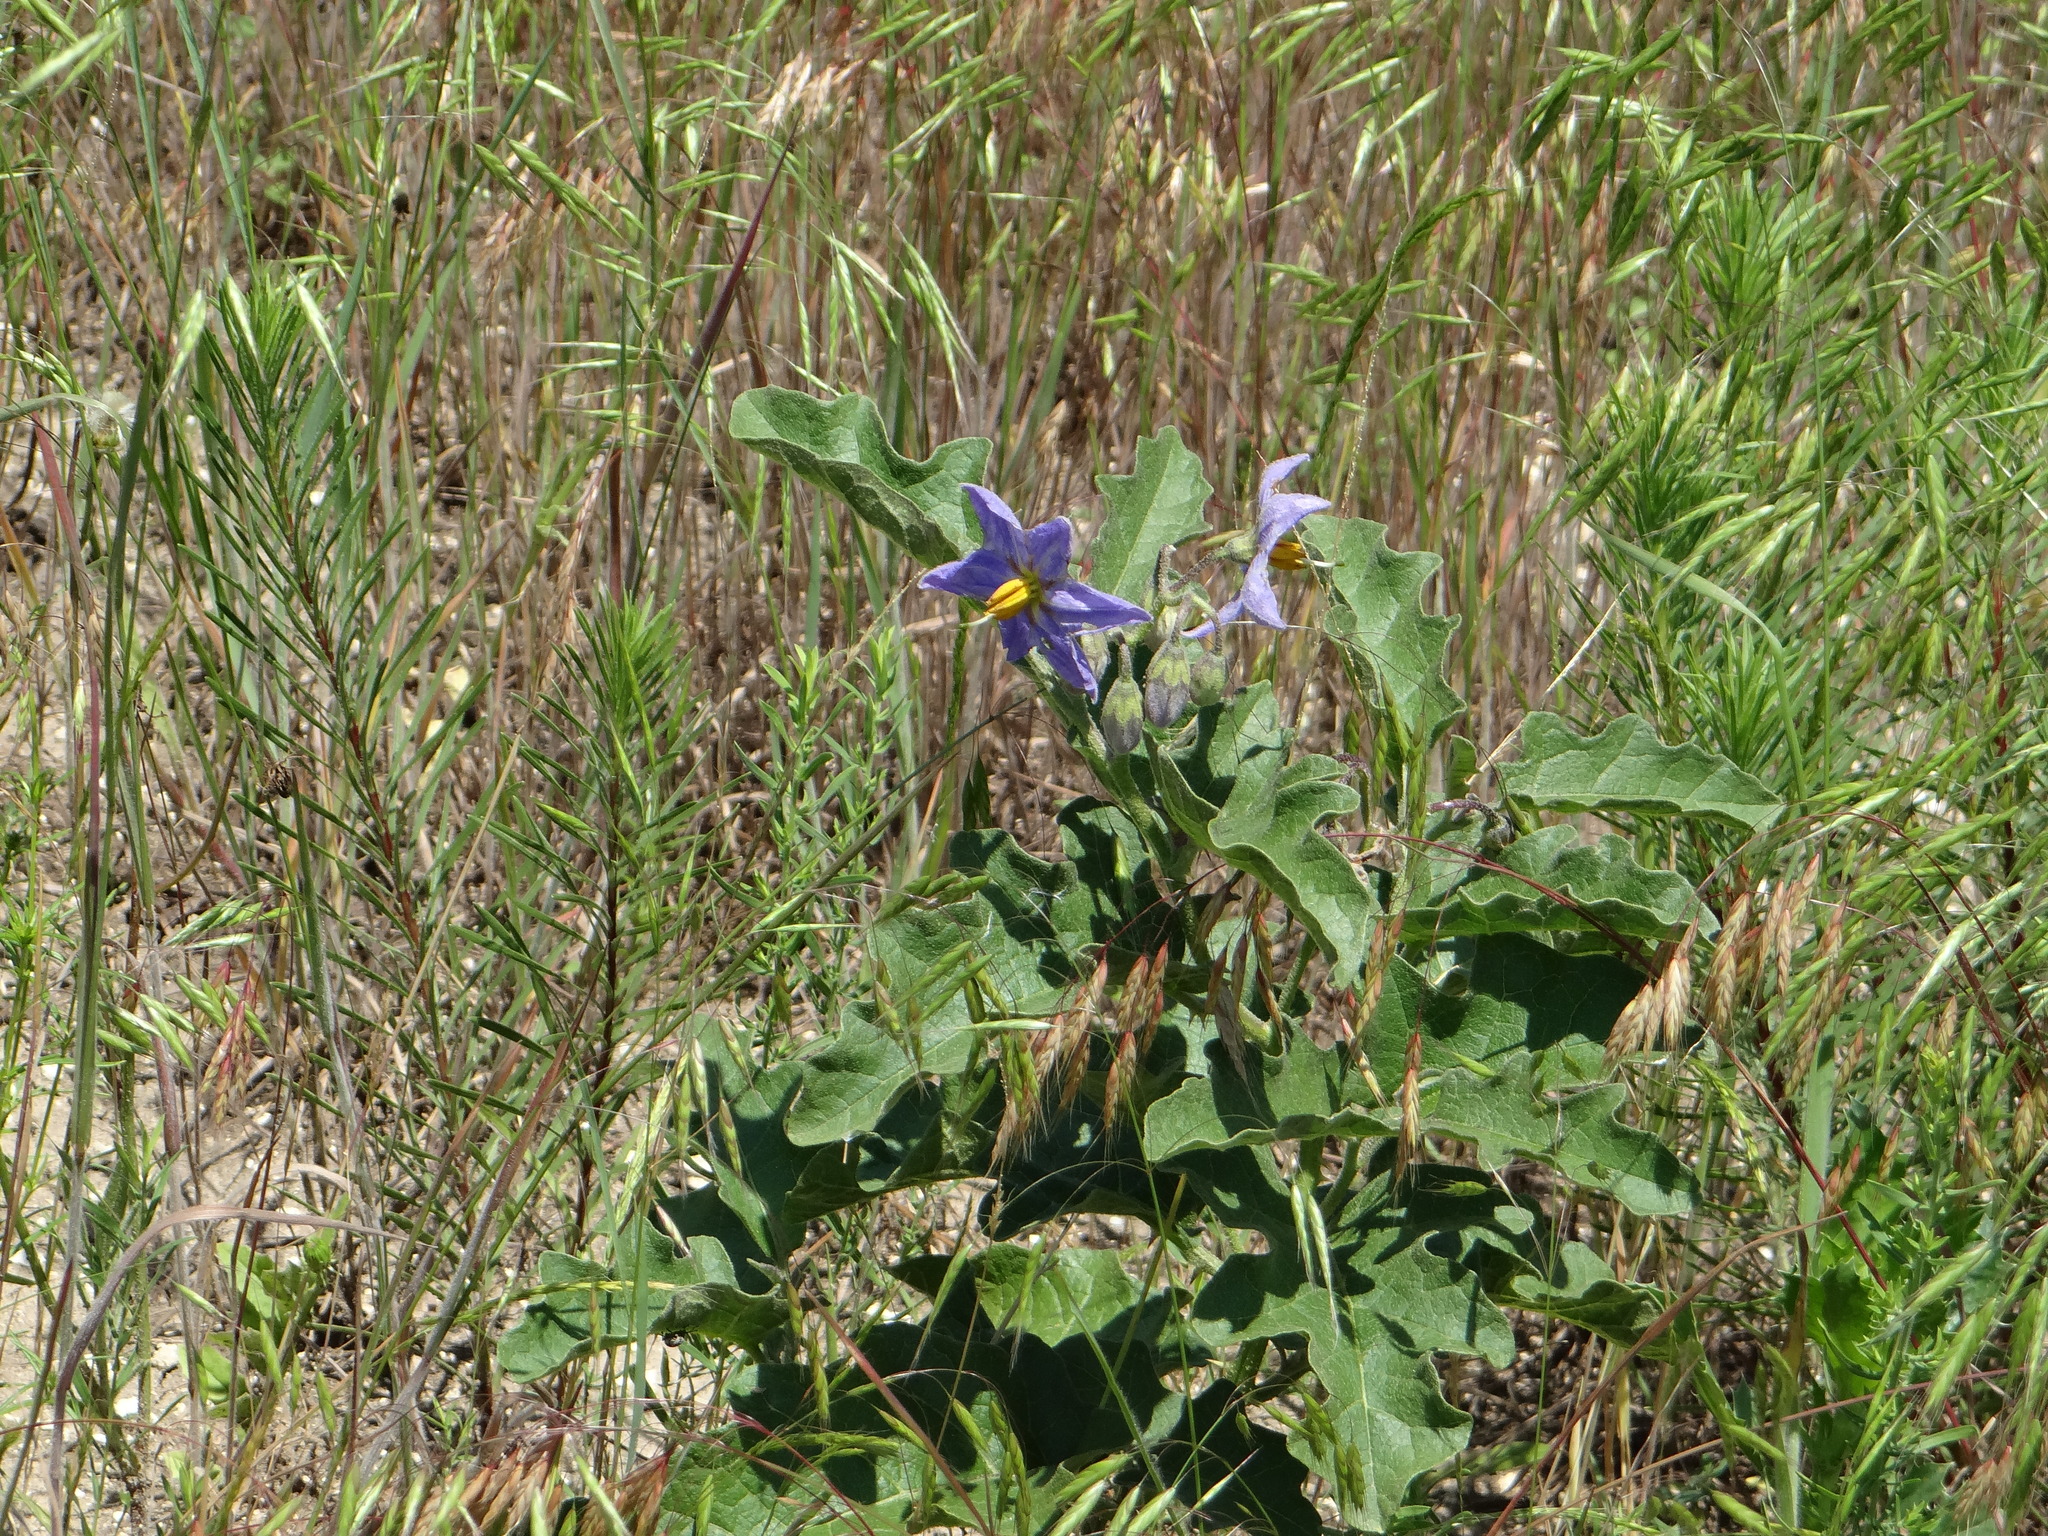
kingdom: Plantae
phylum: Tracheophyta
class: Magnoliopsida
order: Solanales
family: Solanaceae
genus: Solanum
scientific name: Solanum dimidiatum
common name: Carolina horse-nettle
